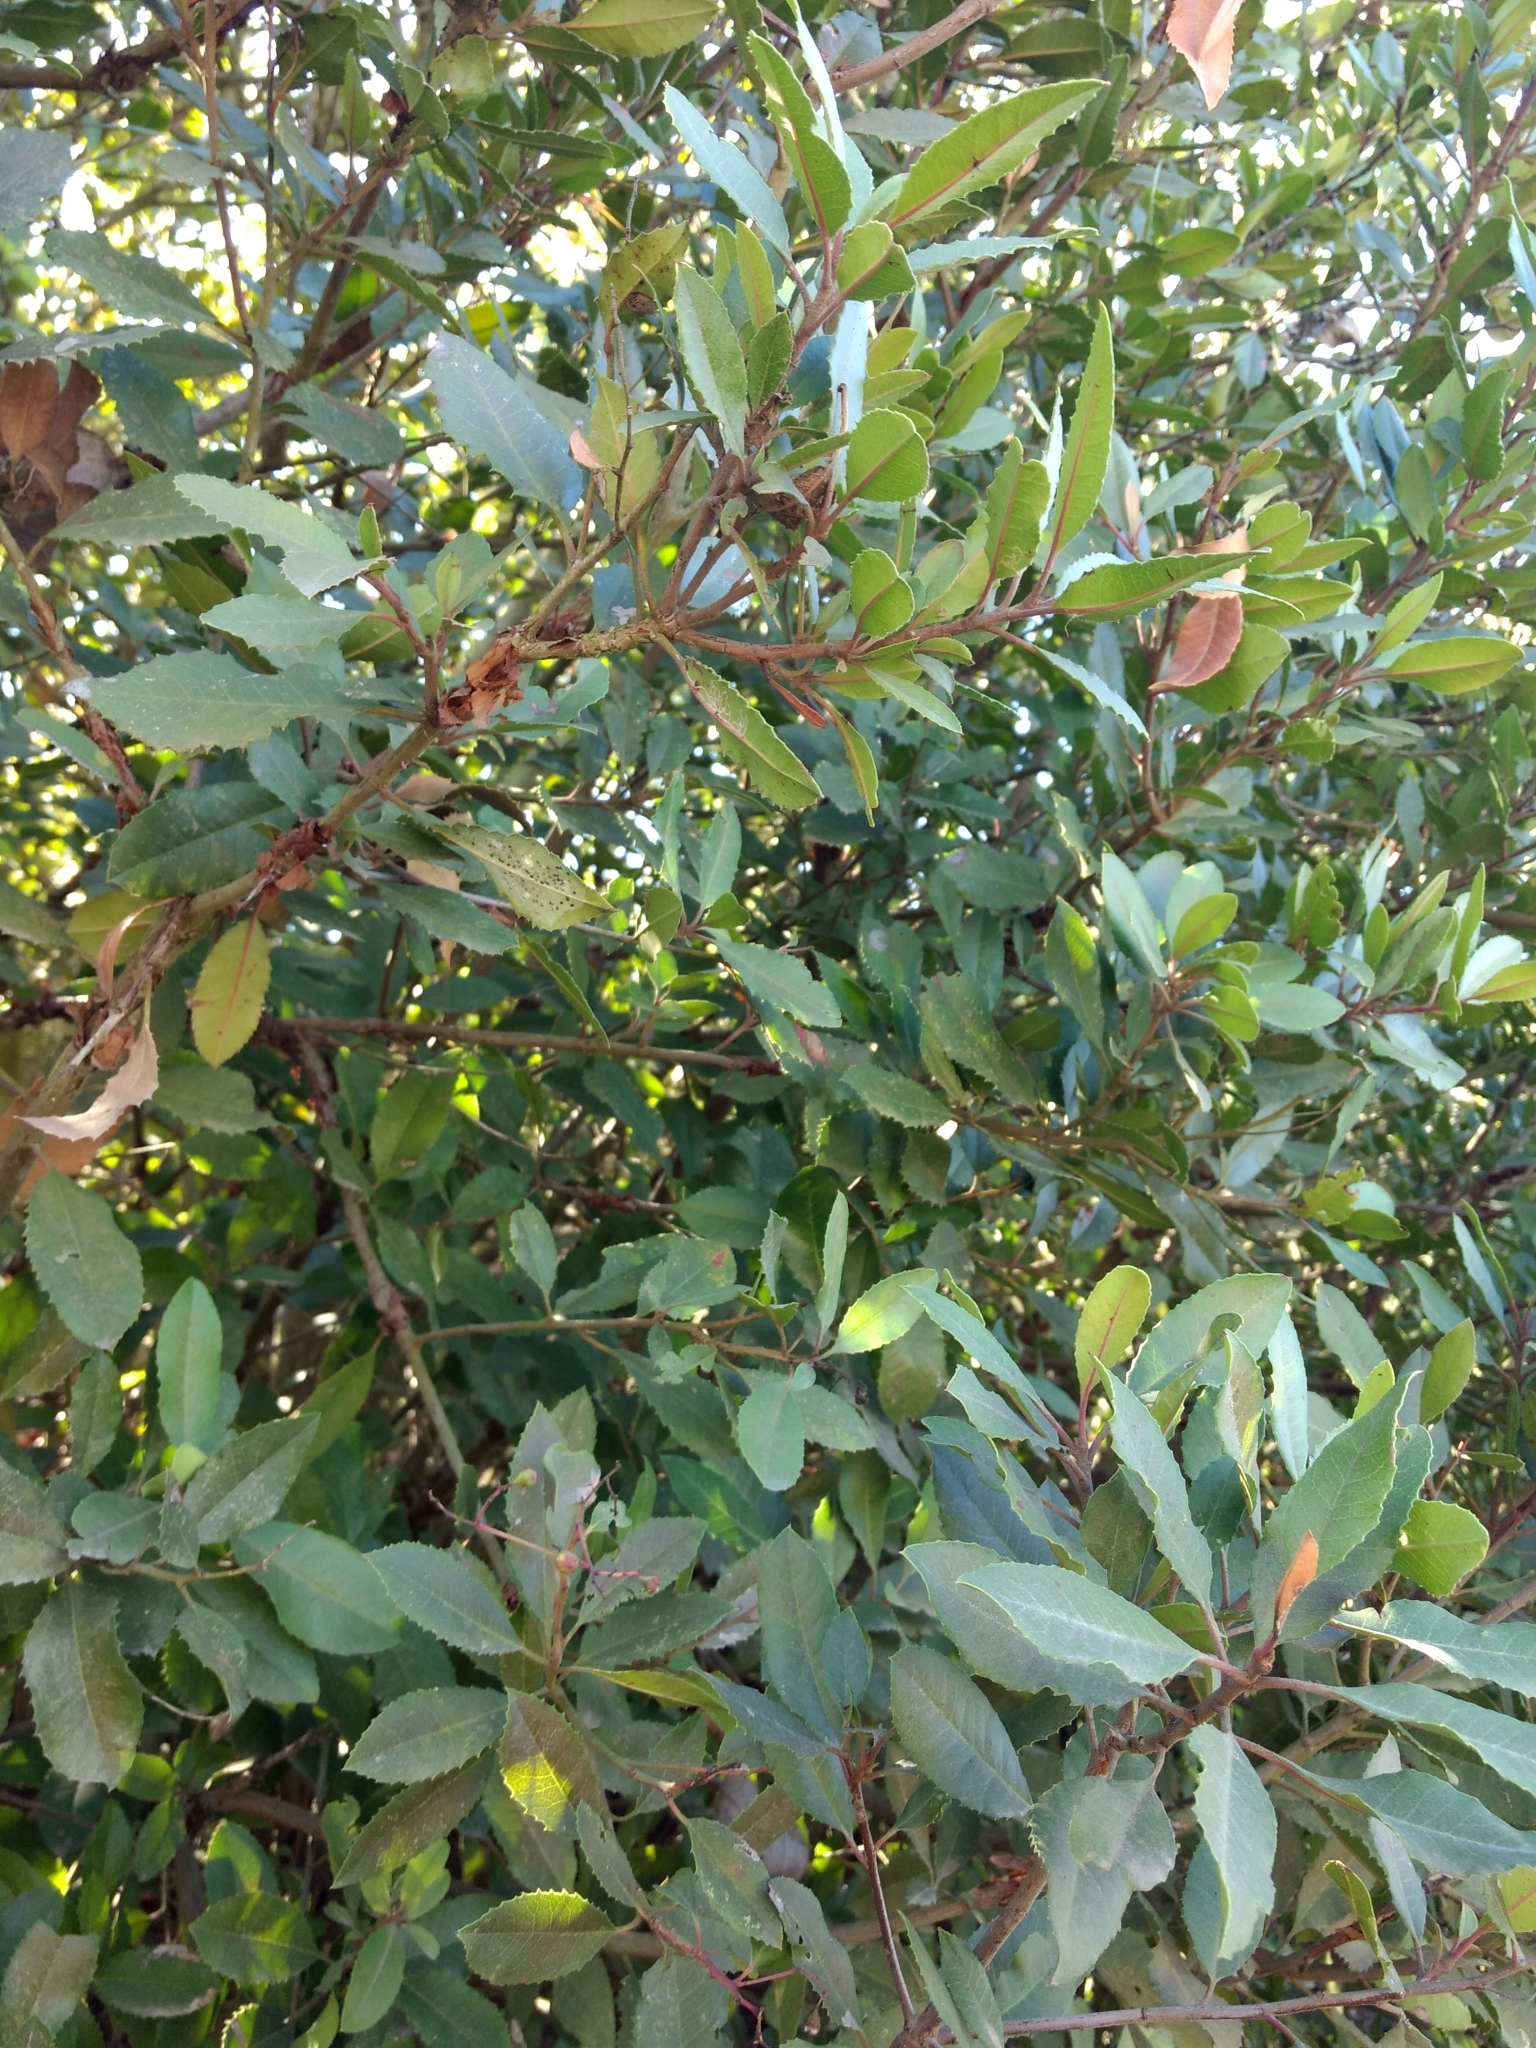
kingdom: Plantae
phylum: Tracheophyta
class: Magnoliopsida
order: Rosales
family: Rosaceae
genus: Heteromeles
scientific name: Heteromeles arbutifolia
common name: California-holly
